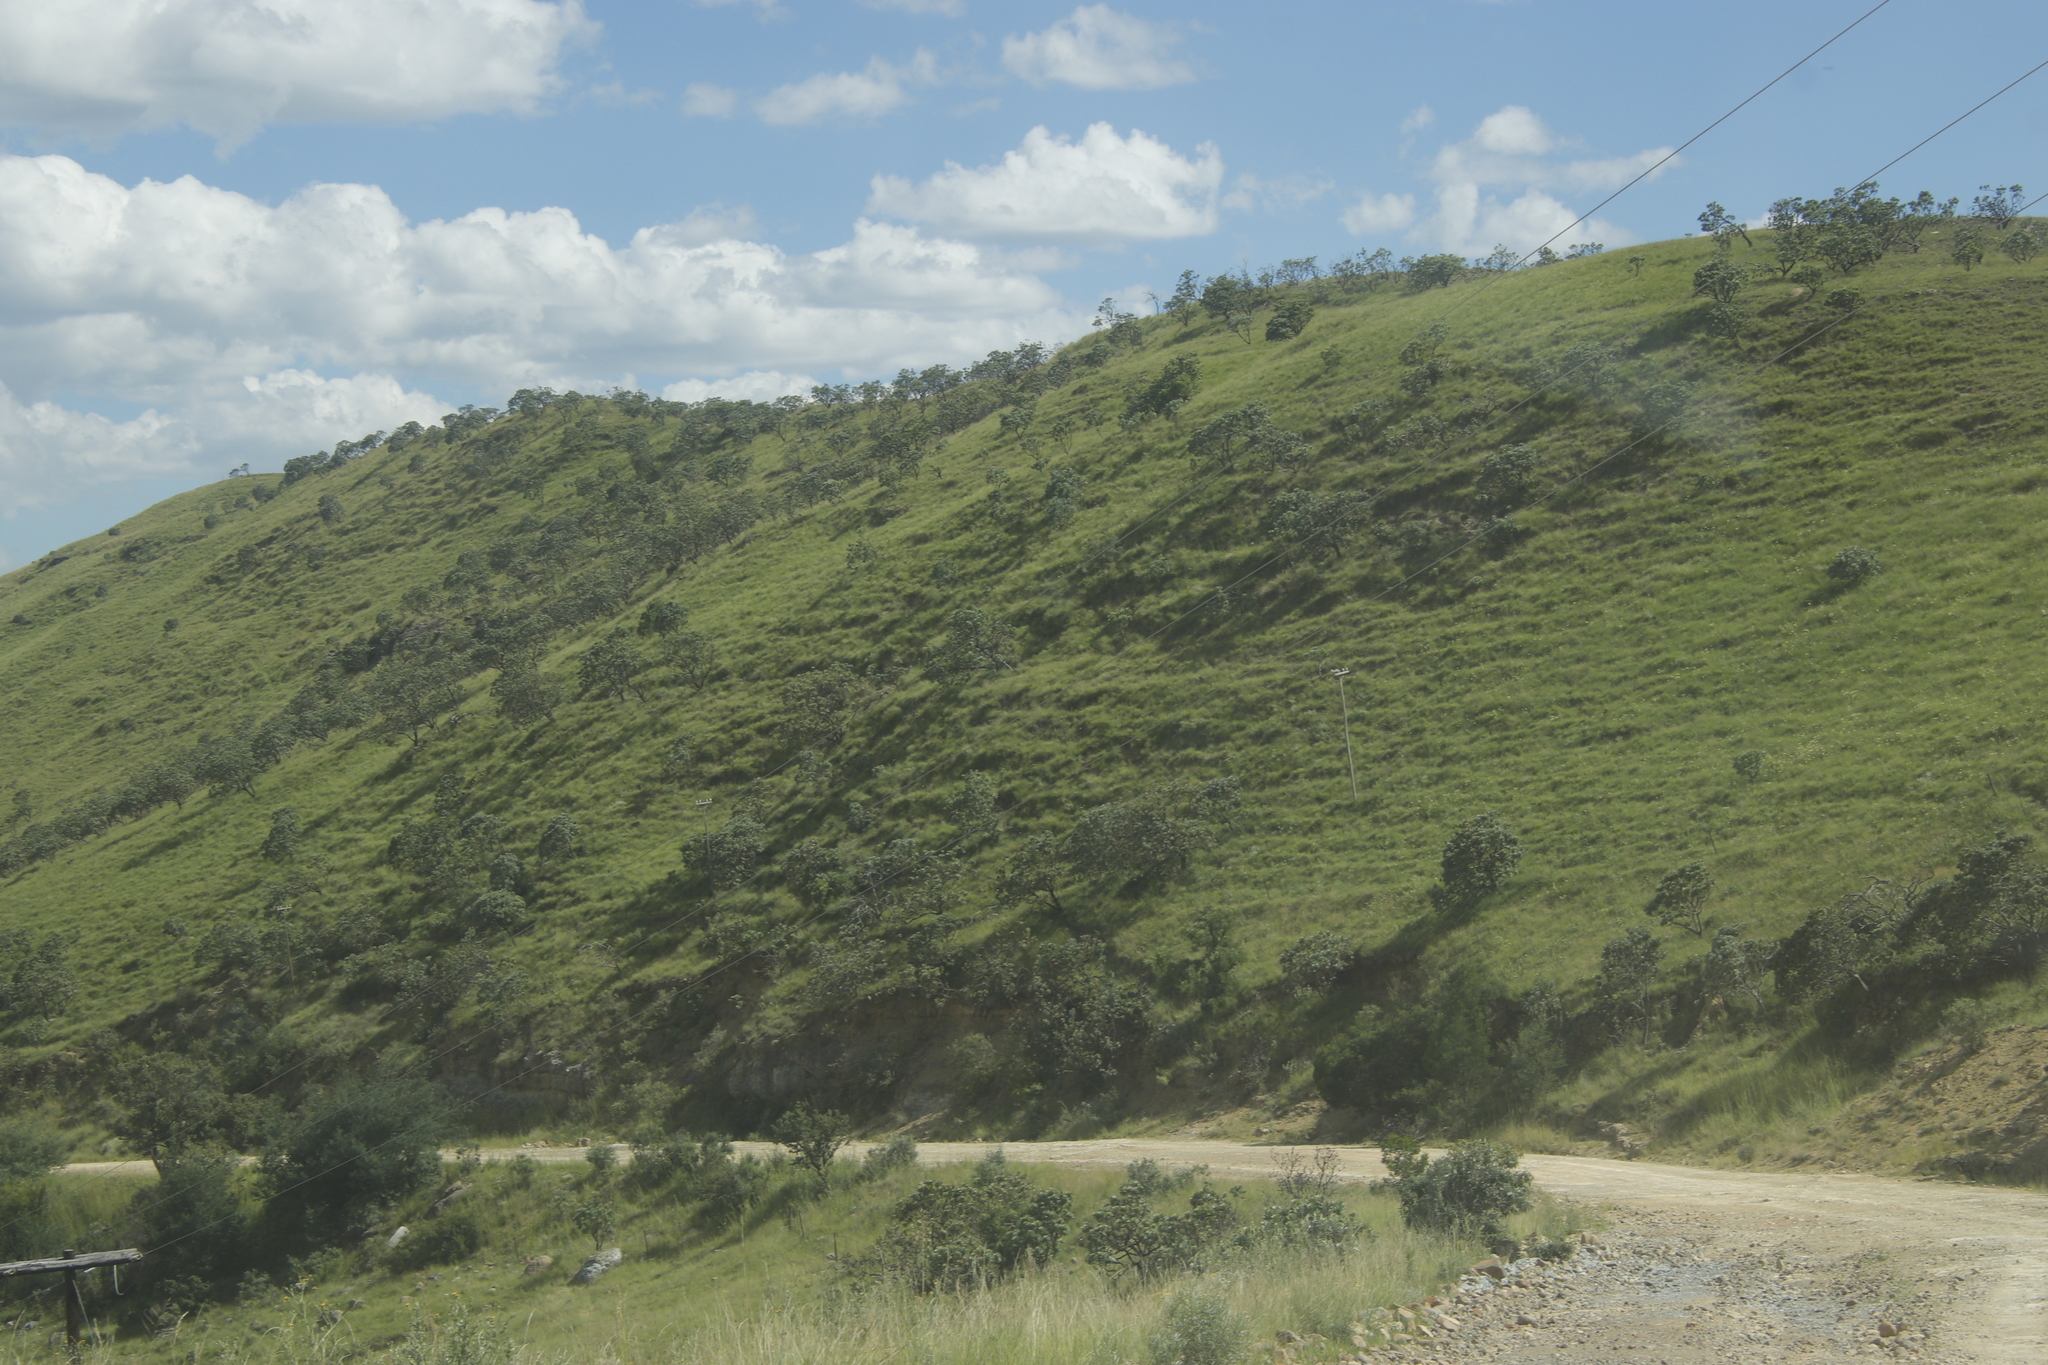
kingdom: Plantae
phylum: Tracheophyta
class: Magnoliopsida
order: Proteales
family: Proteaceae
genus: Protea
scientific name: Protea roupelliae
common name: Silver sugarbush
